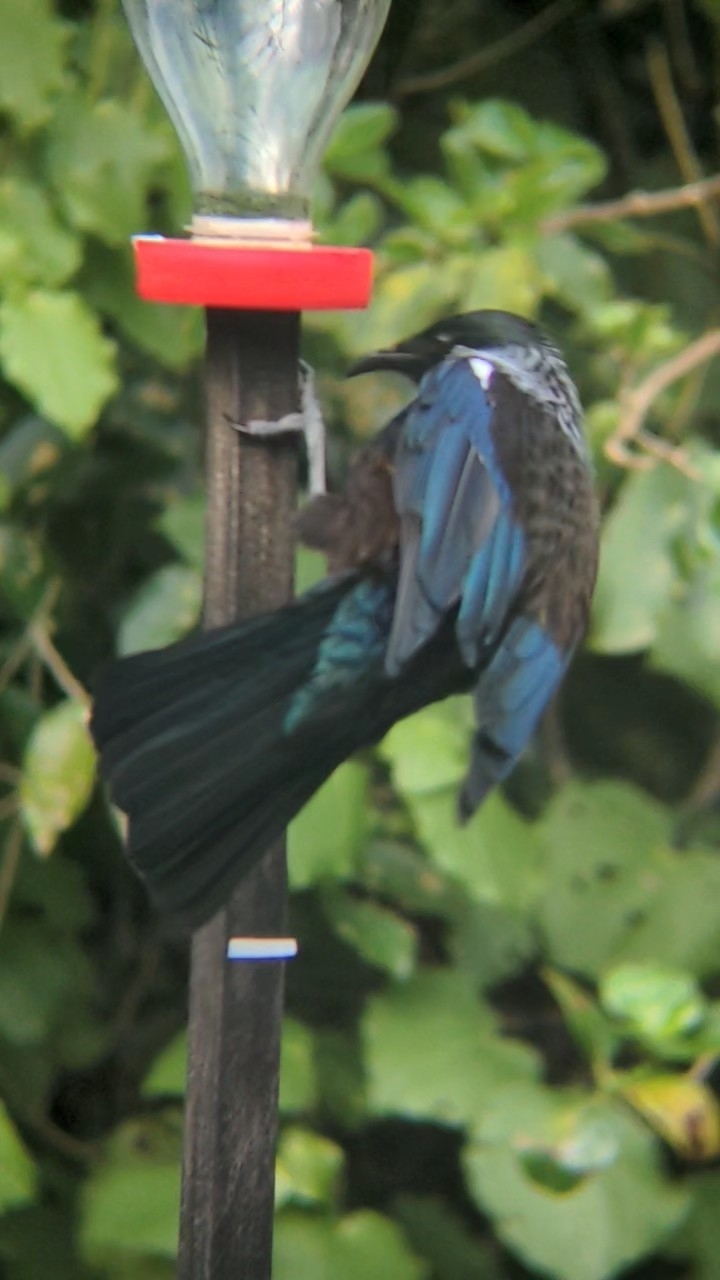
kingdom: Animalia
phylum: Chordata
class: Aves
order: Passeriformes
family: Meliphagidae
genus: Prosthemadera
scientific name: Prosthemadera novaeseelandiae
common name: Tui
